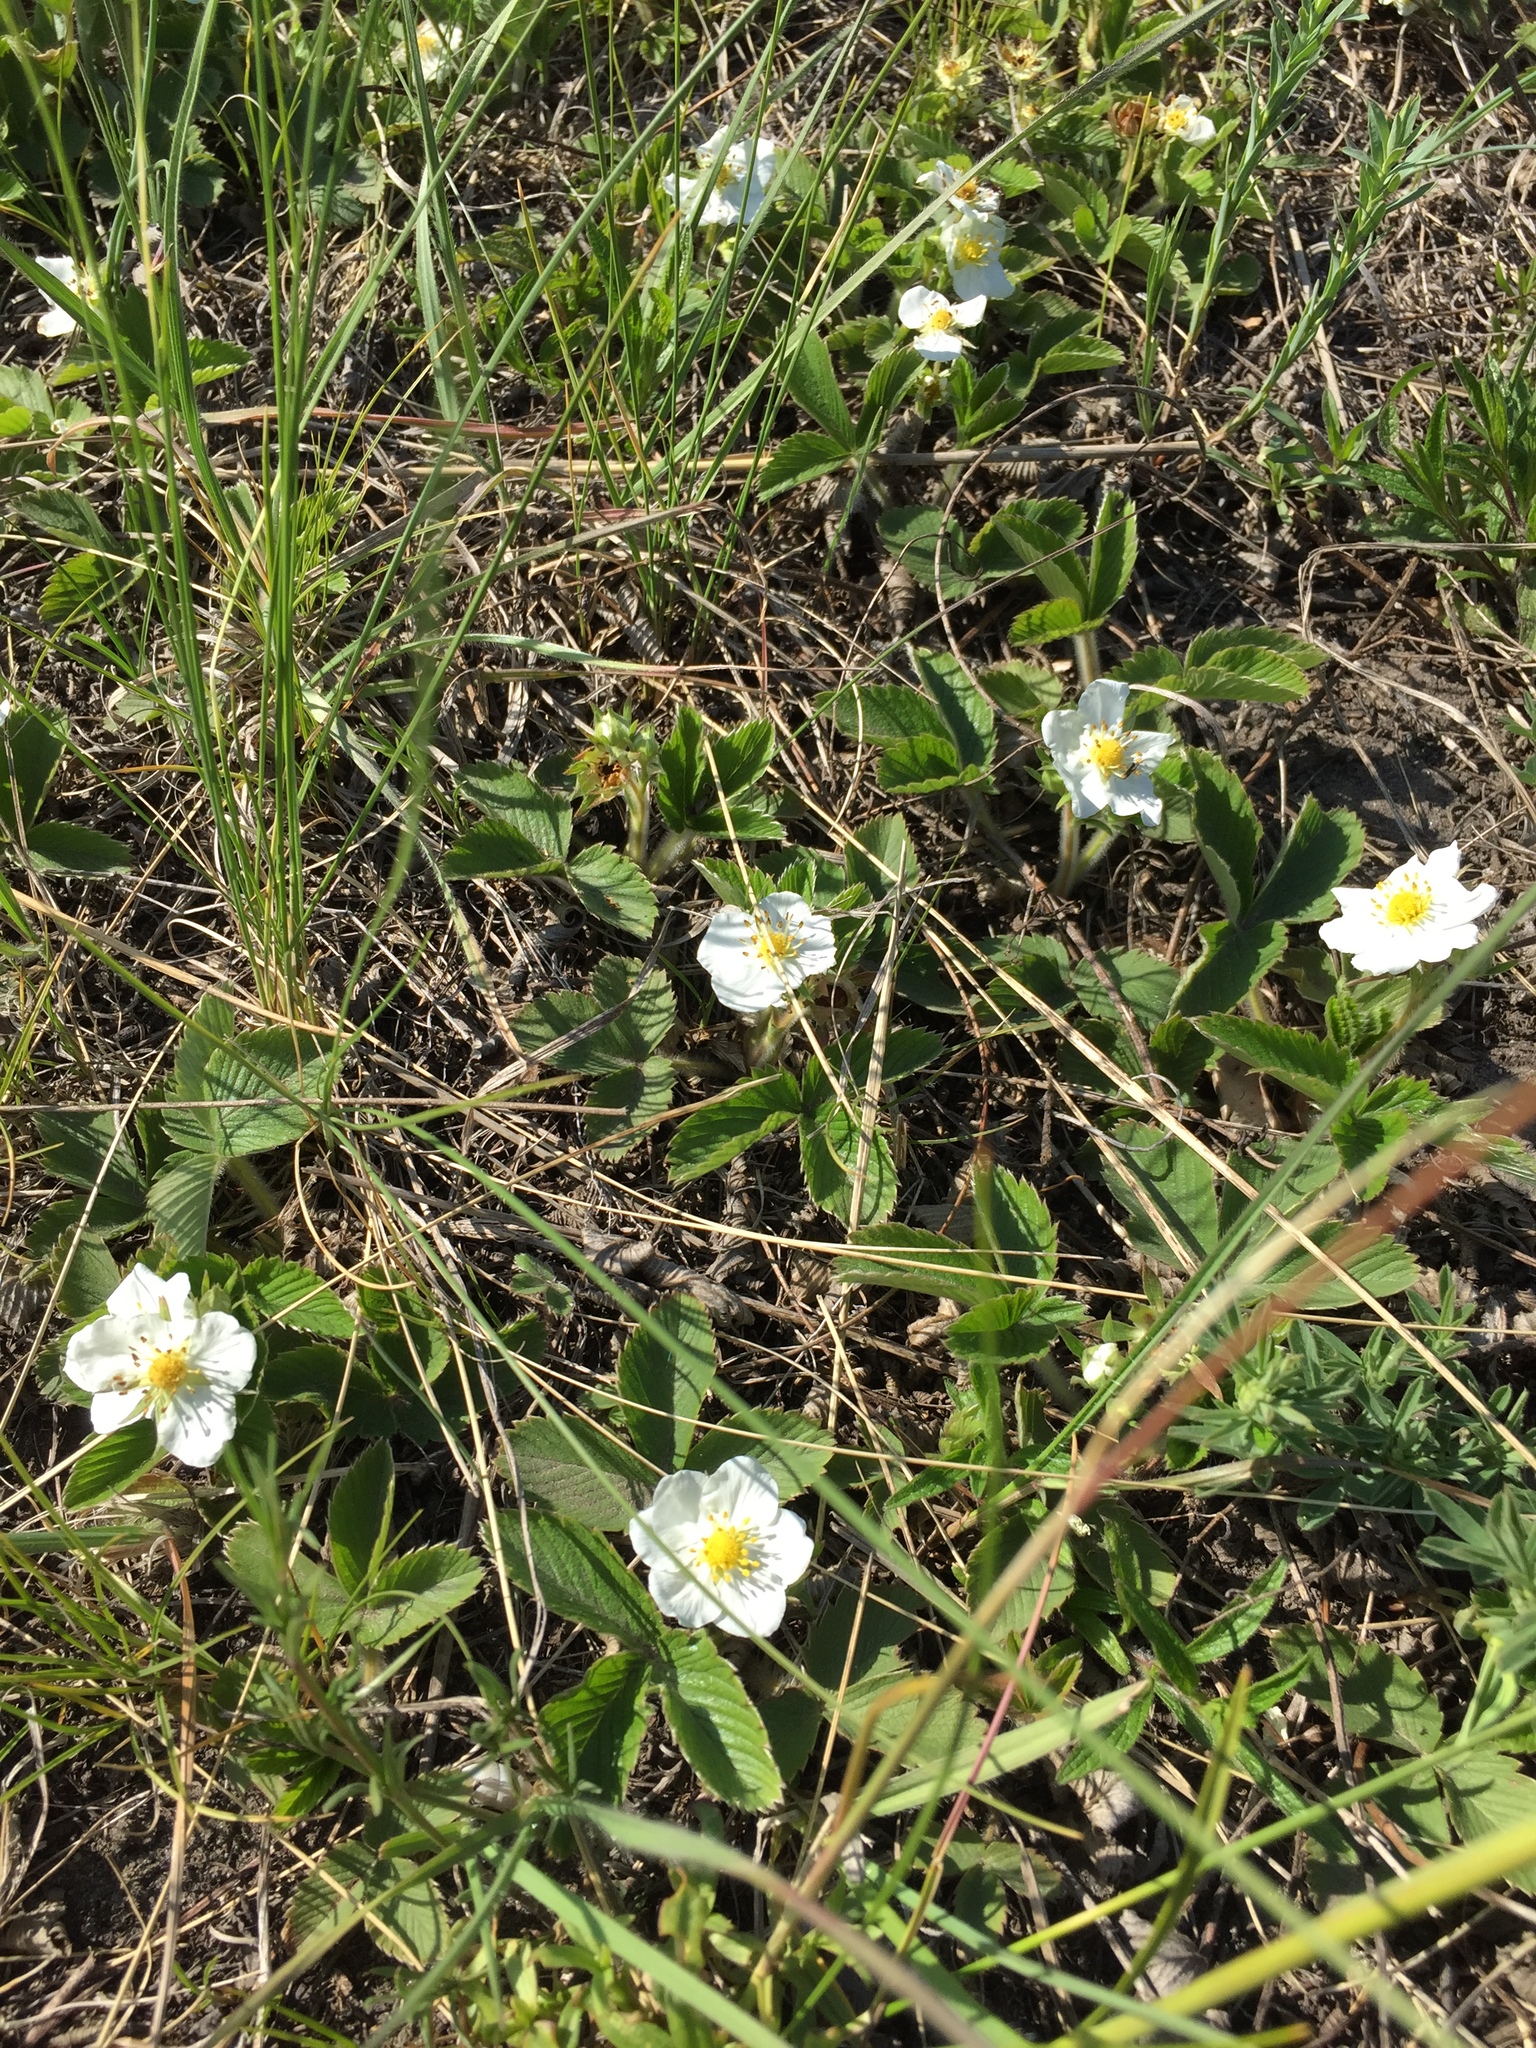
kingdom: Plantae
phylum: Tracheophyta
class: Magnoliopsida
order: Rosales
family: Rosaceae
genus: Fragaria
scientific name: Fragaria viridis
